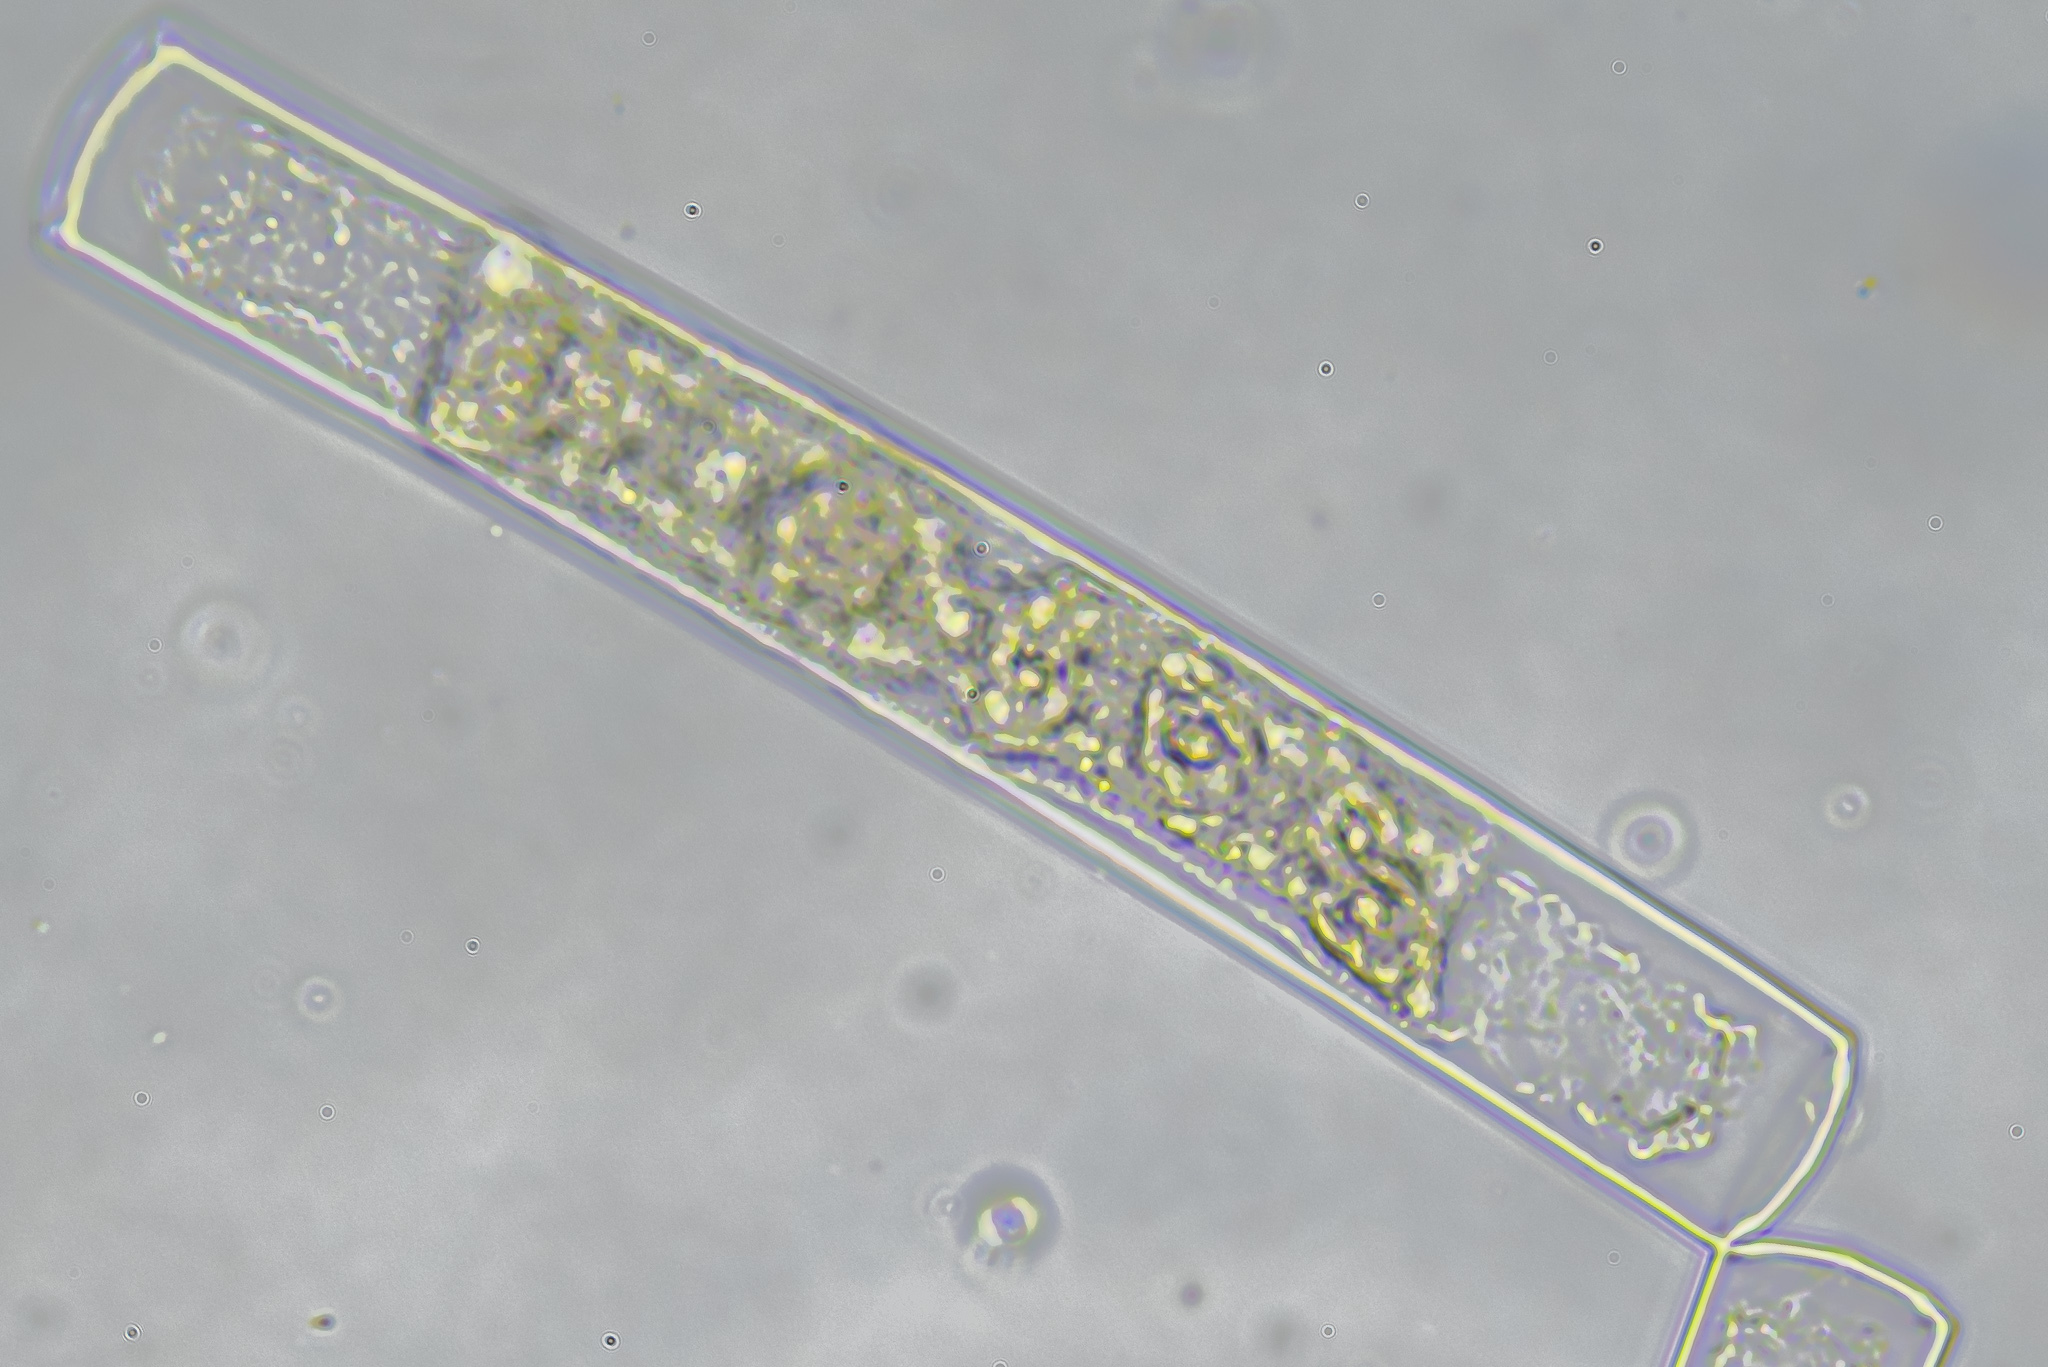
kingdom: Plantae
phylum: Charophyta
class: Zygnematophyceae
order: Zygnematales
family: Zygnemataceae
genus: Mougeotia
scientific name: Mougeotia
